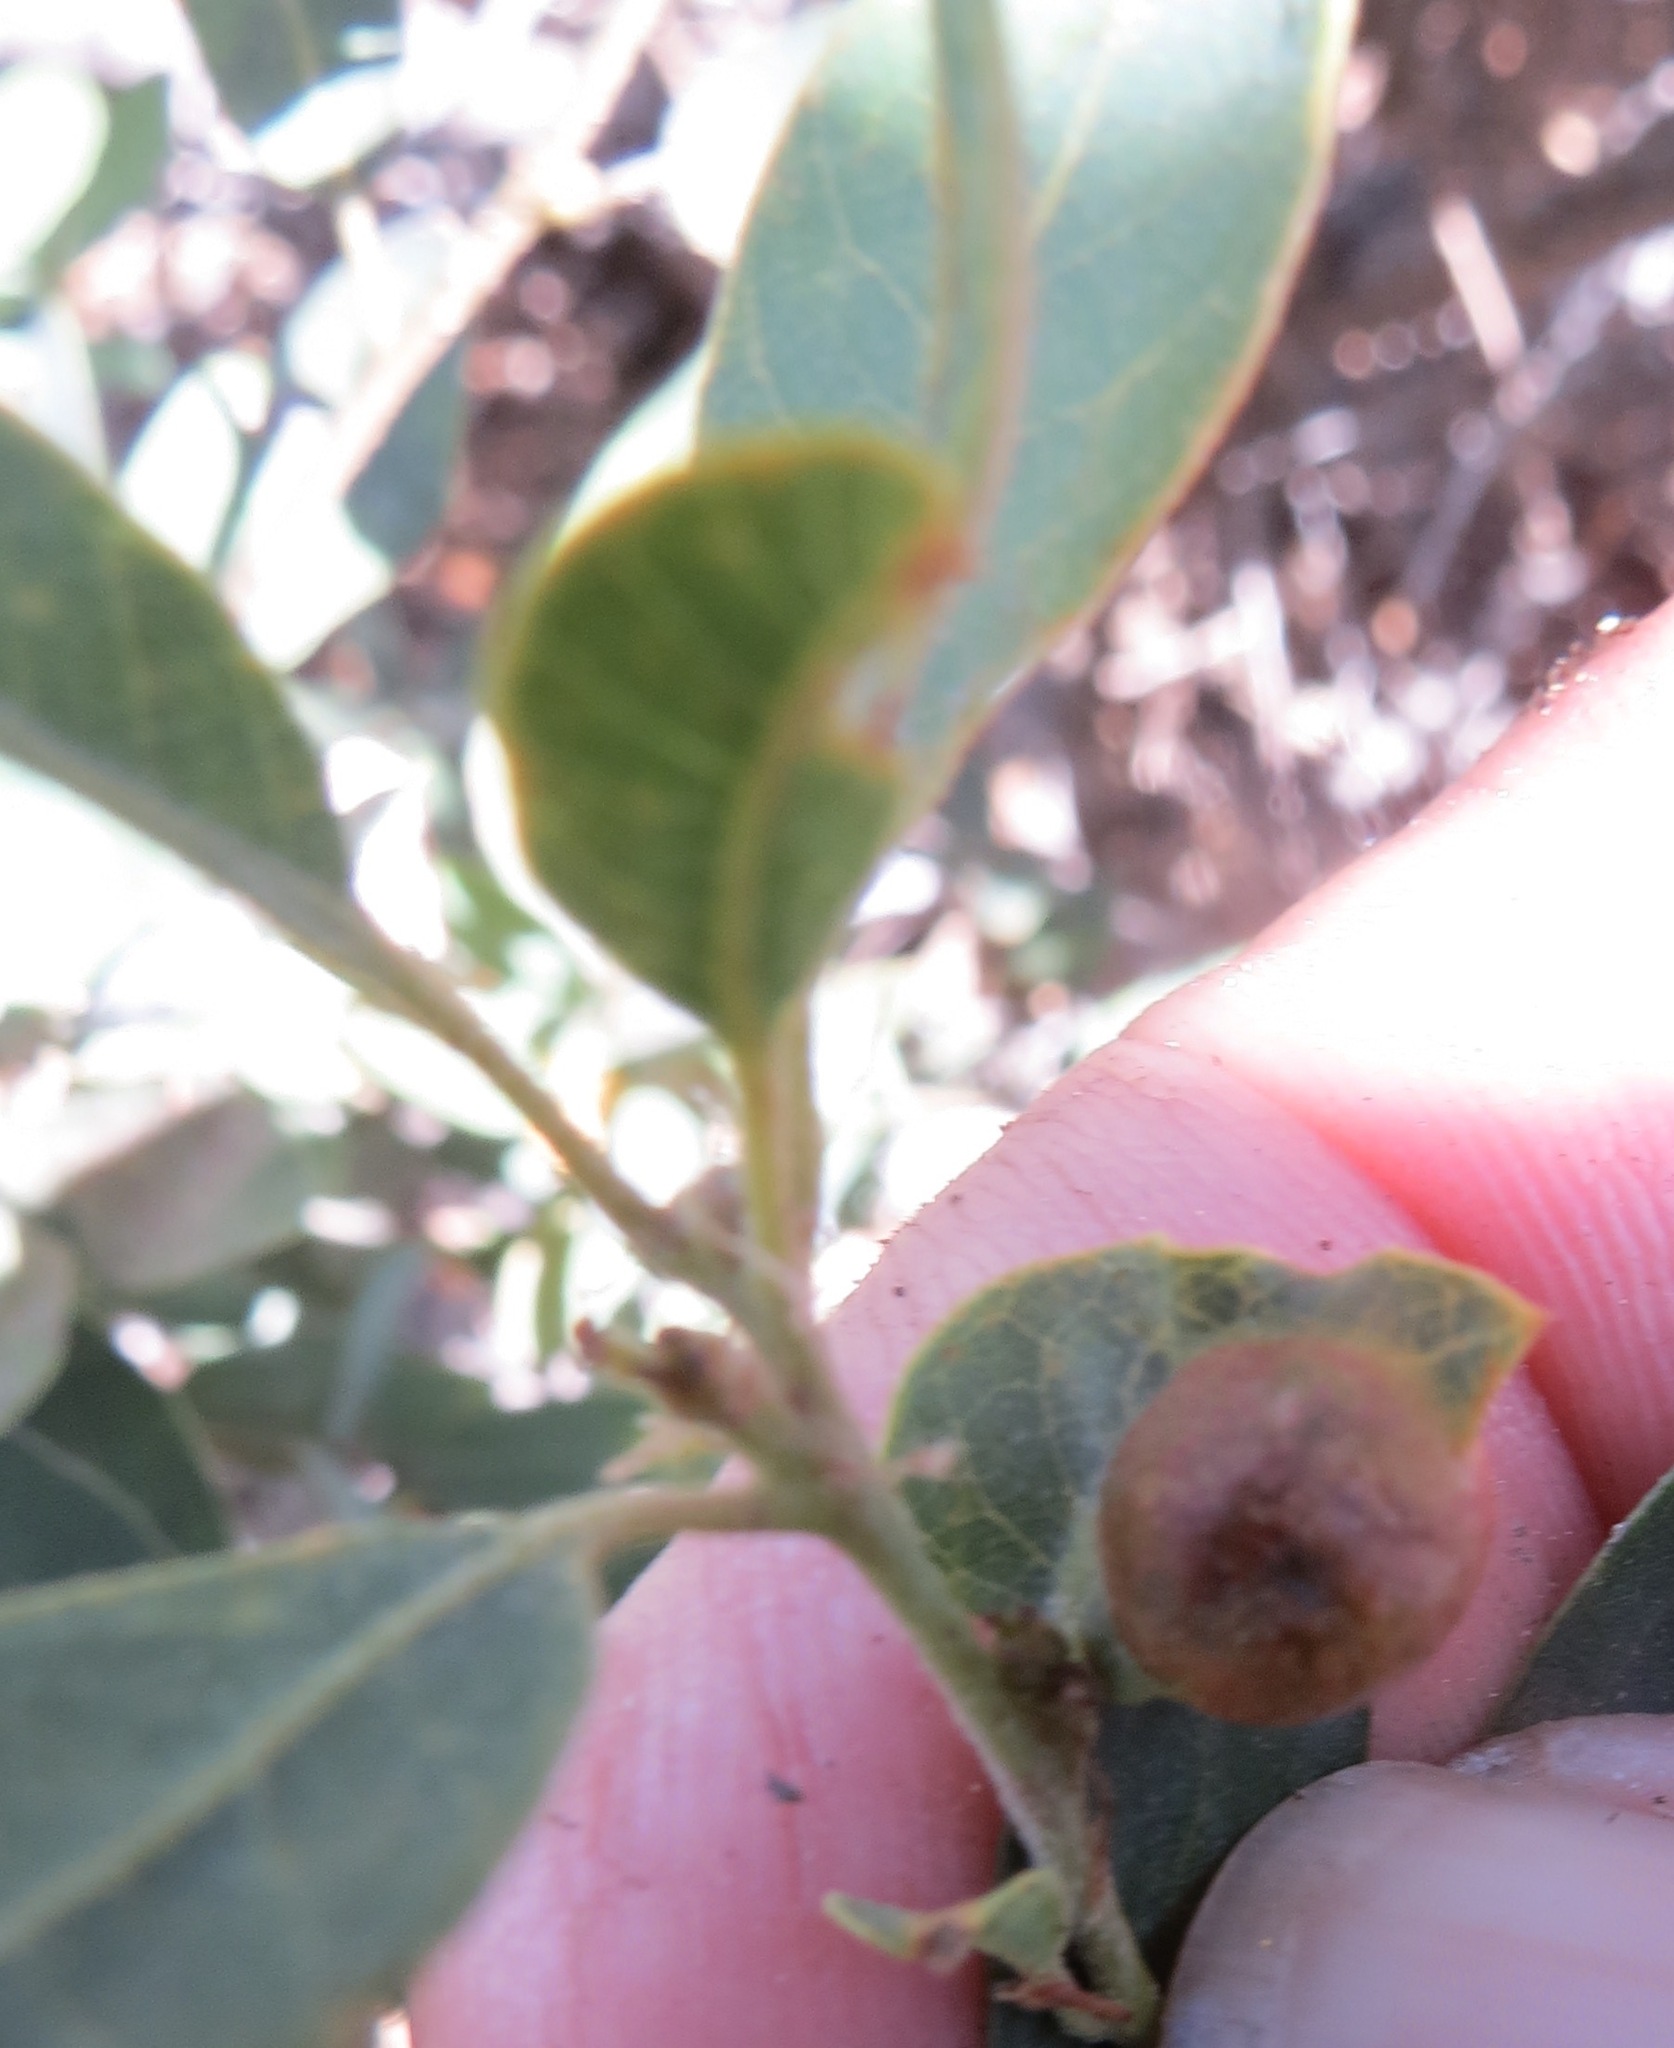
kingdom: Animalia
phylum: Arthropoda
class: Insecta
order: Hymenoptera
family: Cynipidae
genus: Heteroecus
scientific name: Heteroecus
